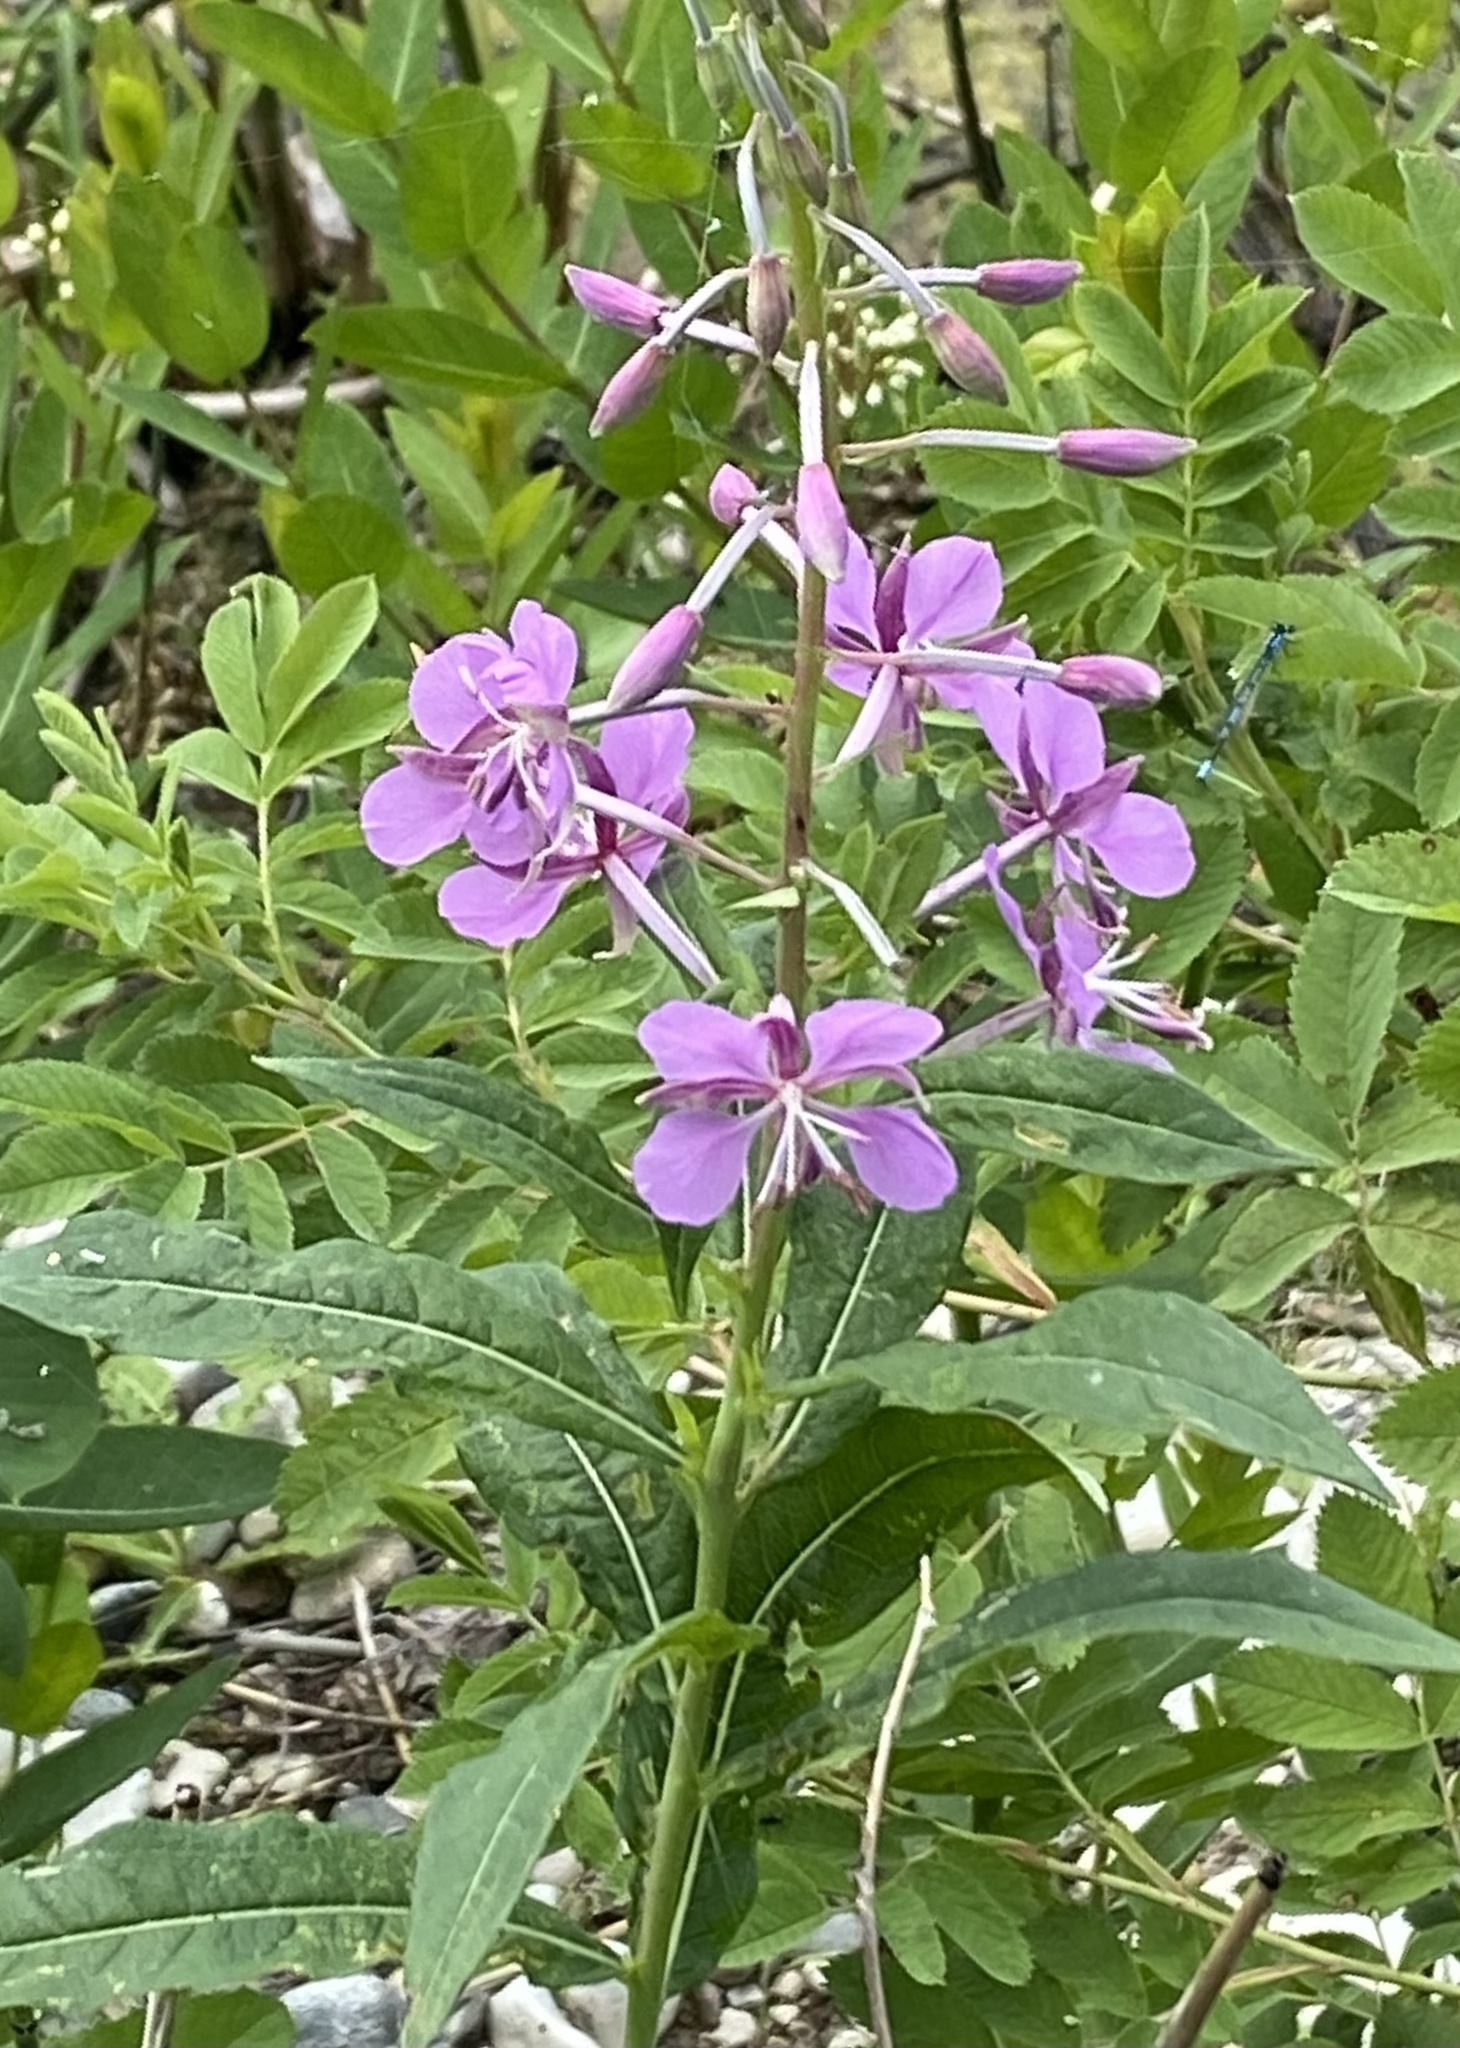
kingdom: Plantae
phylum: Tracheophyta
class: Magnoliopsida
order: Myrtales
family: Onagraceae
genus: Chamaenerion
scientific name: Chamaenerion angustifolium
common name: Fireweed
